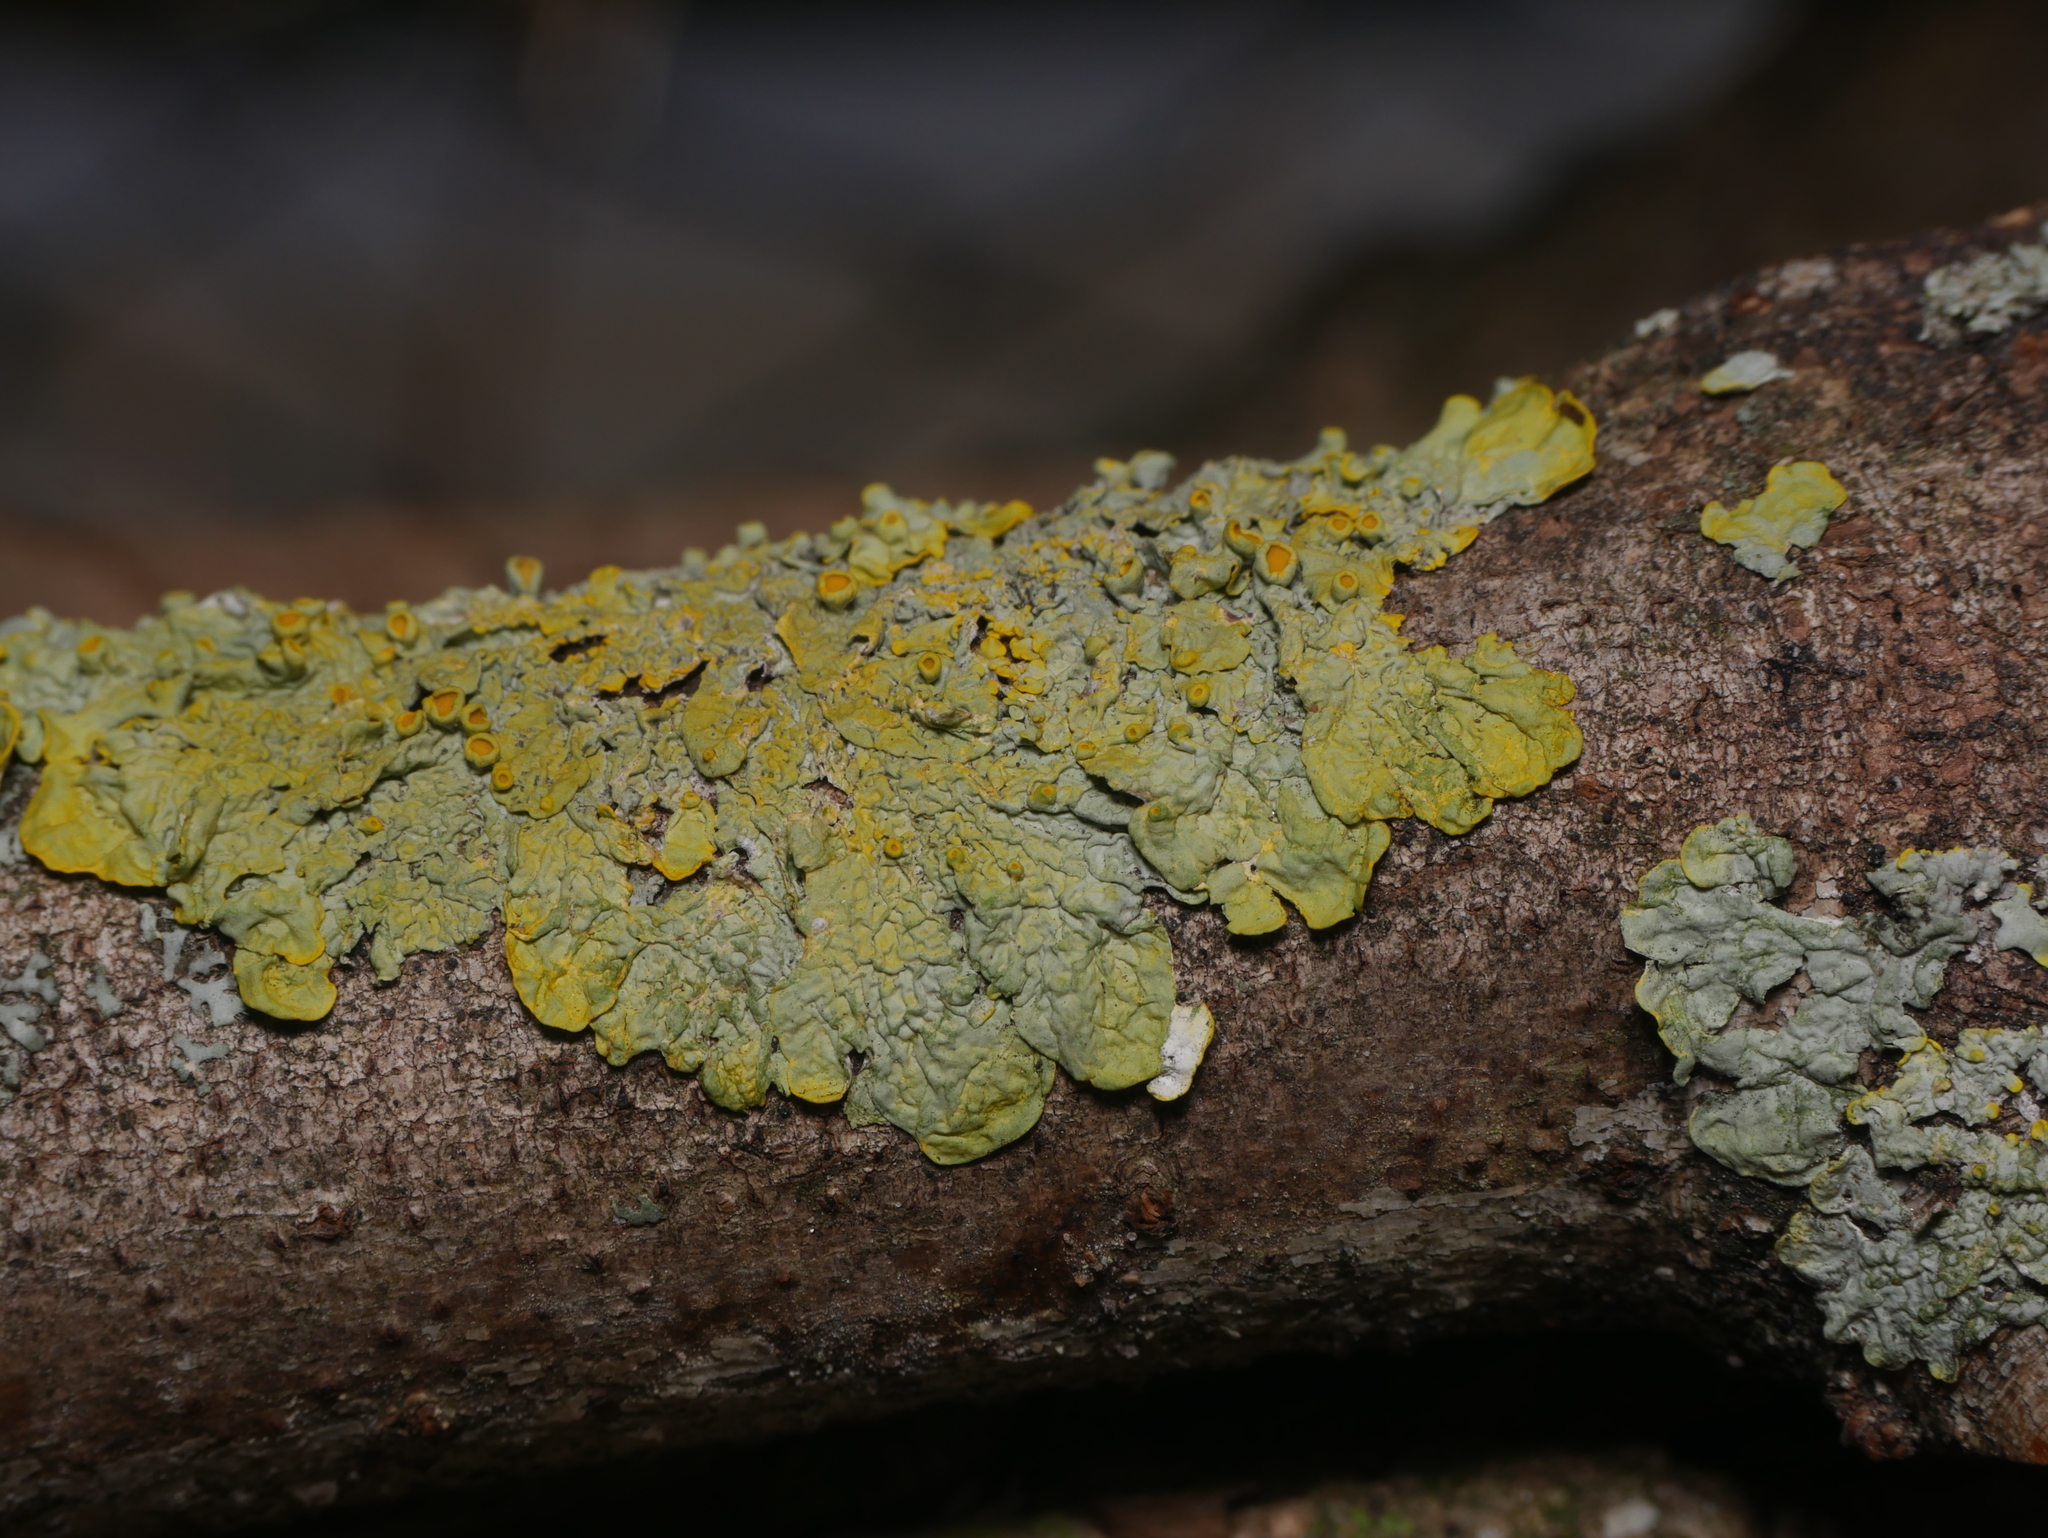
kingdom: Fungi
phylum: Ascomycota
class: Lecanoromycetes
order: Teloschistales
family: Teloschistaceae
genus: Xanthoria
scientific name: Xanthoria parietina
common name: Common orange lichen
